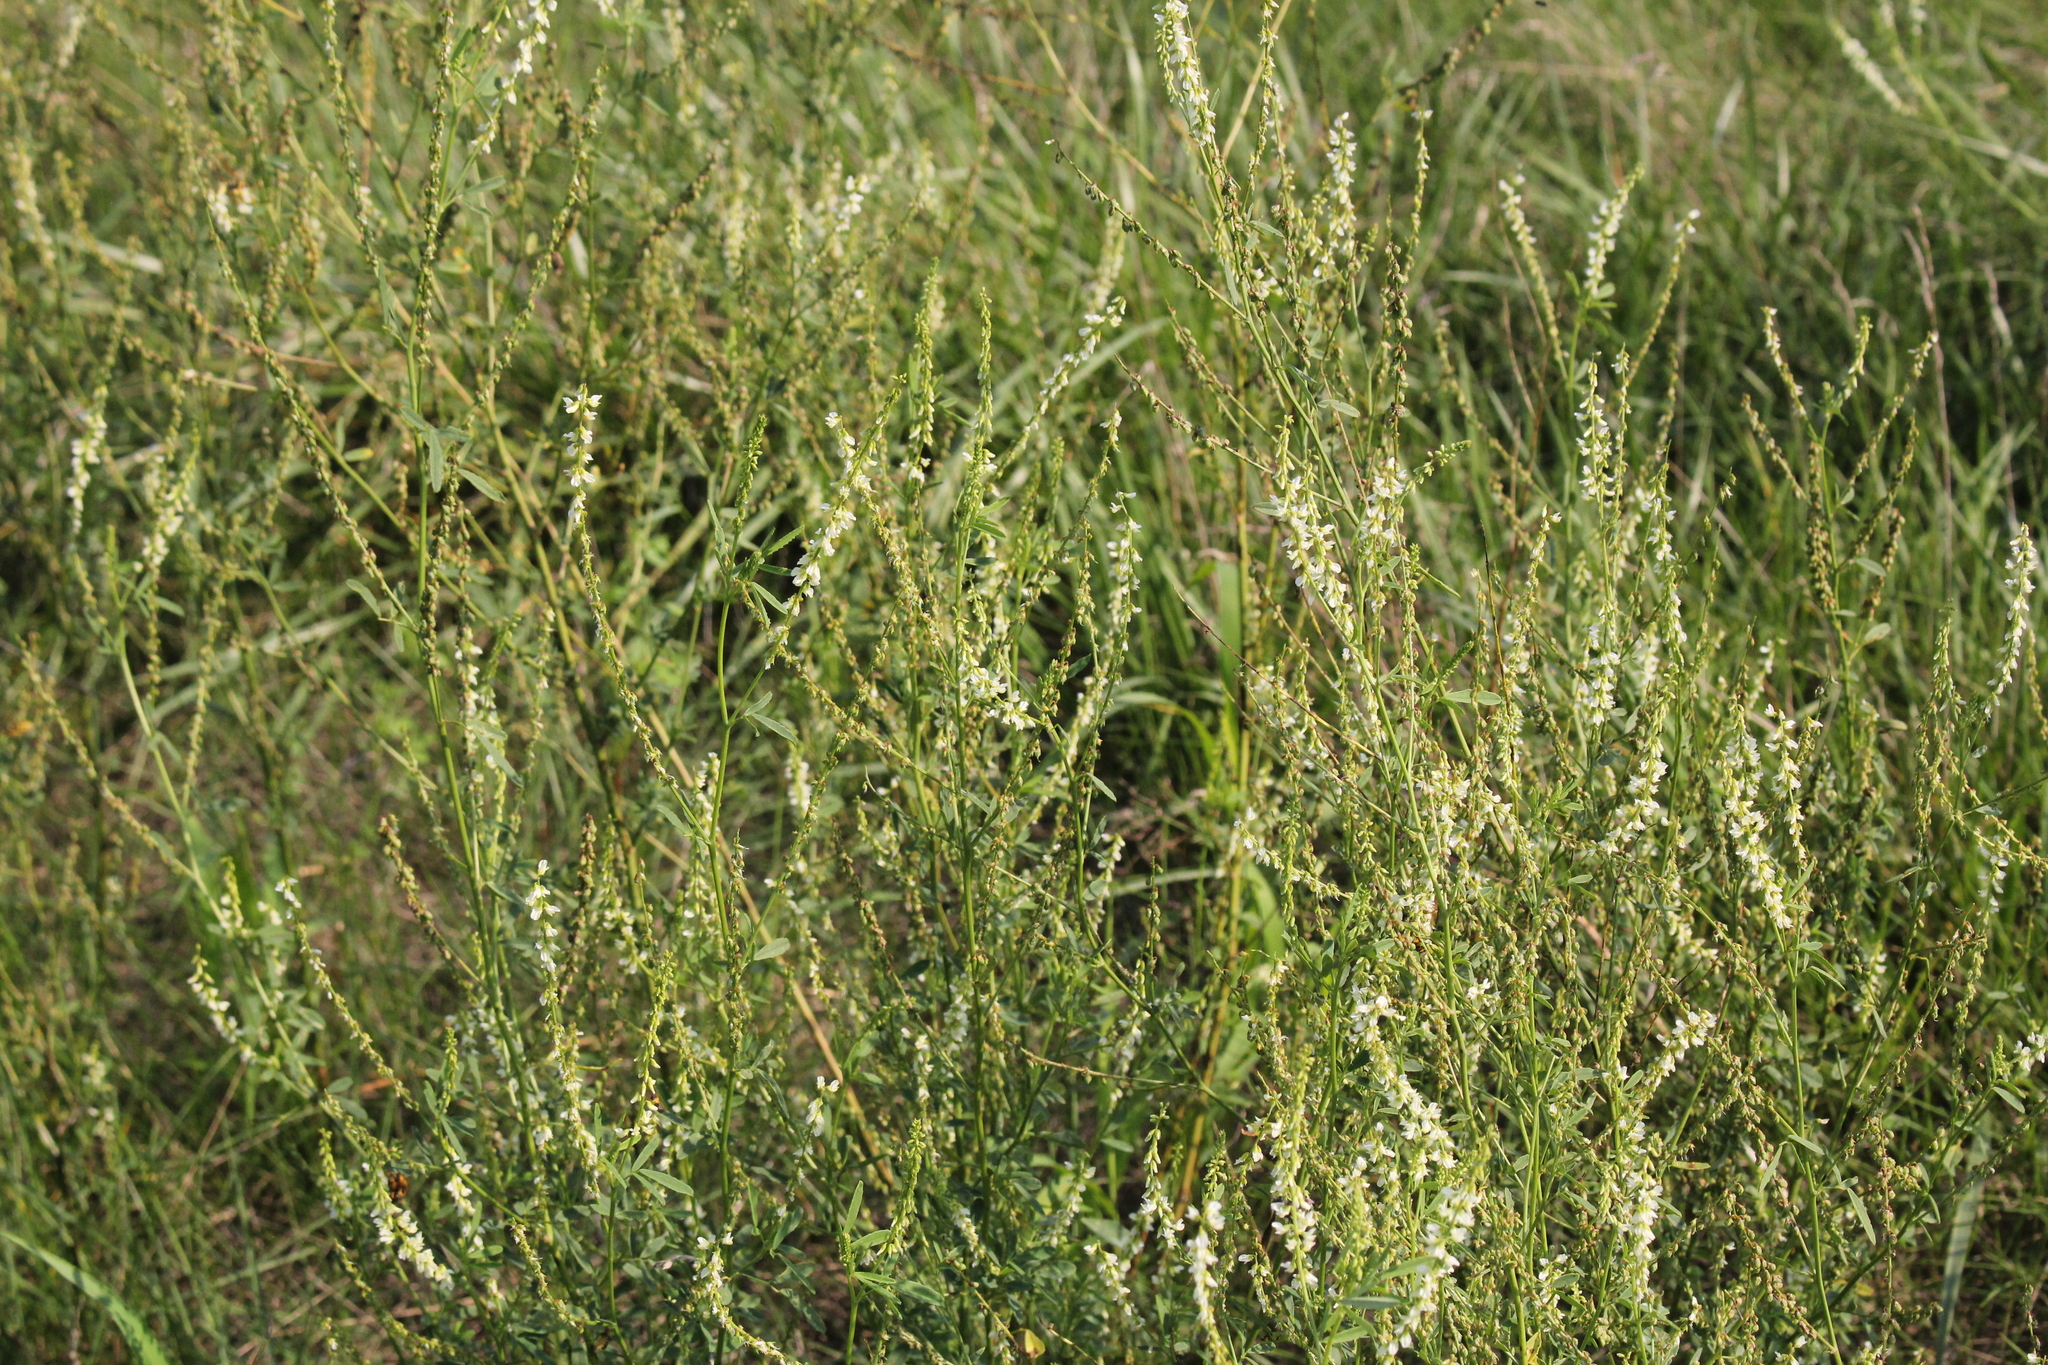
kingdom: Plantae
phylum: Tracheophyta
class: Magnoliopsida
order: Fabales
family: Fabaceae
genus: Melilotus
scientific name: Melilotus albus
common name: White melilot
